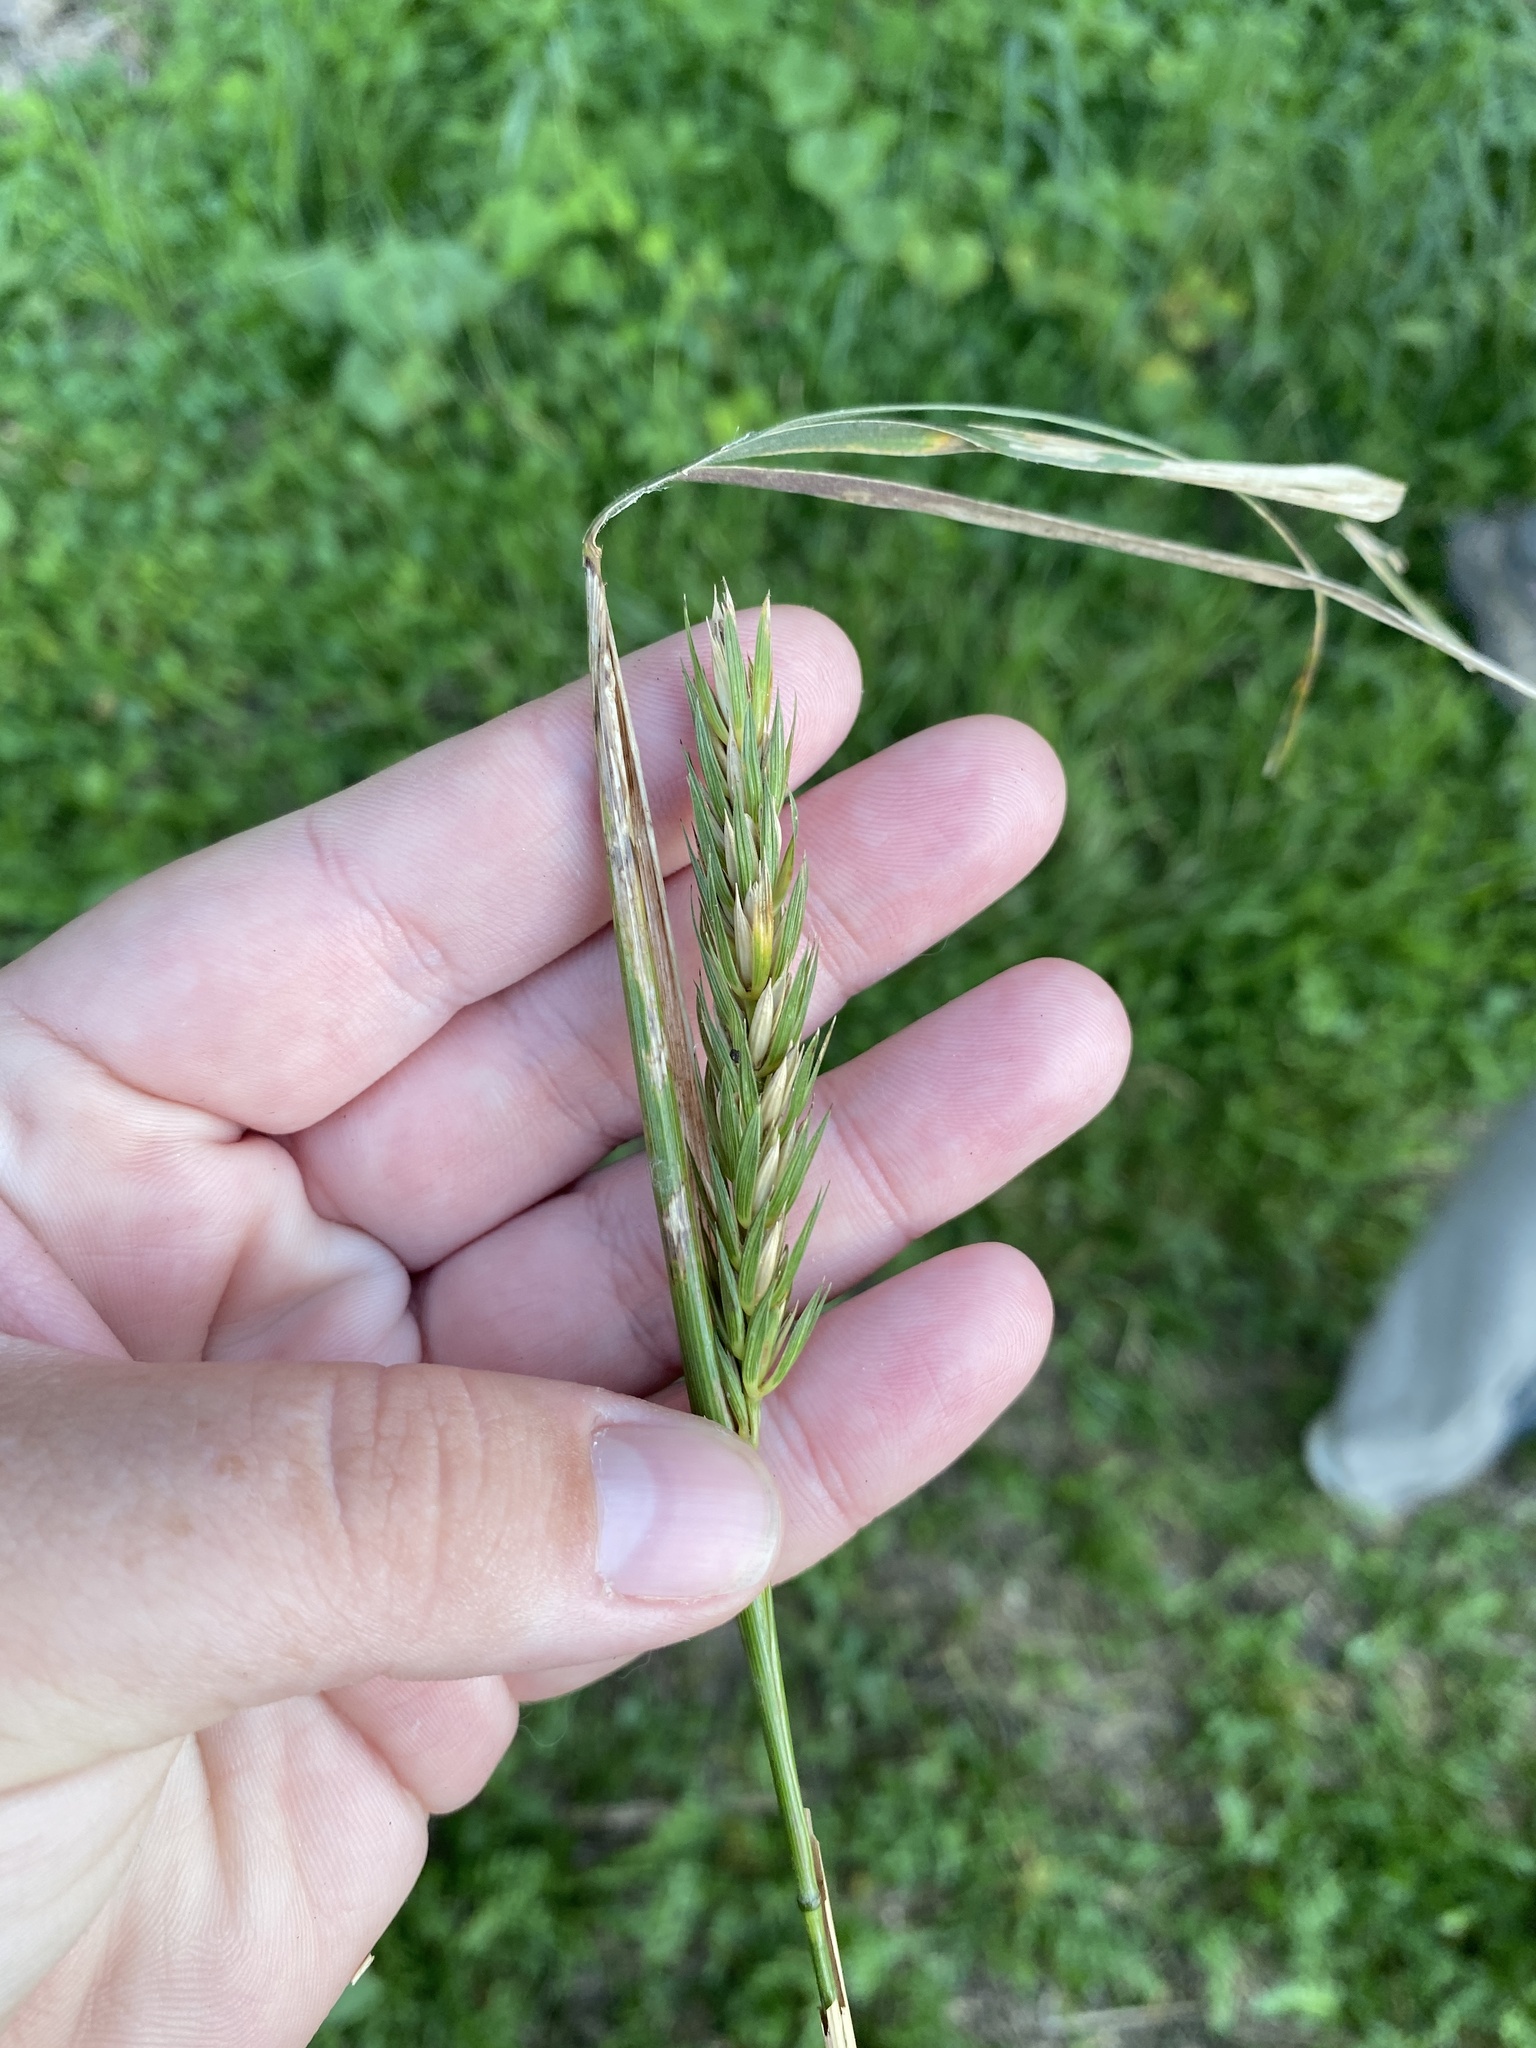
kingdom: Plantae
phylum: Tracheophyta
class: Liliopsida
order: Poales
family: Poaceae
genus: Elymus
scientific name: Elymus virginicus
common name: Common eastern wildrye
